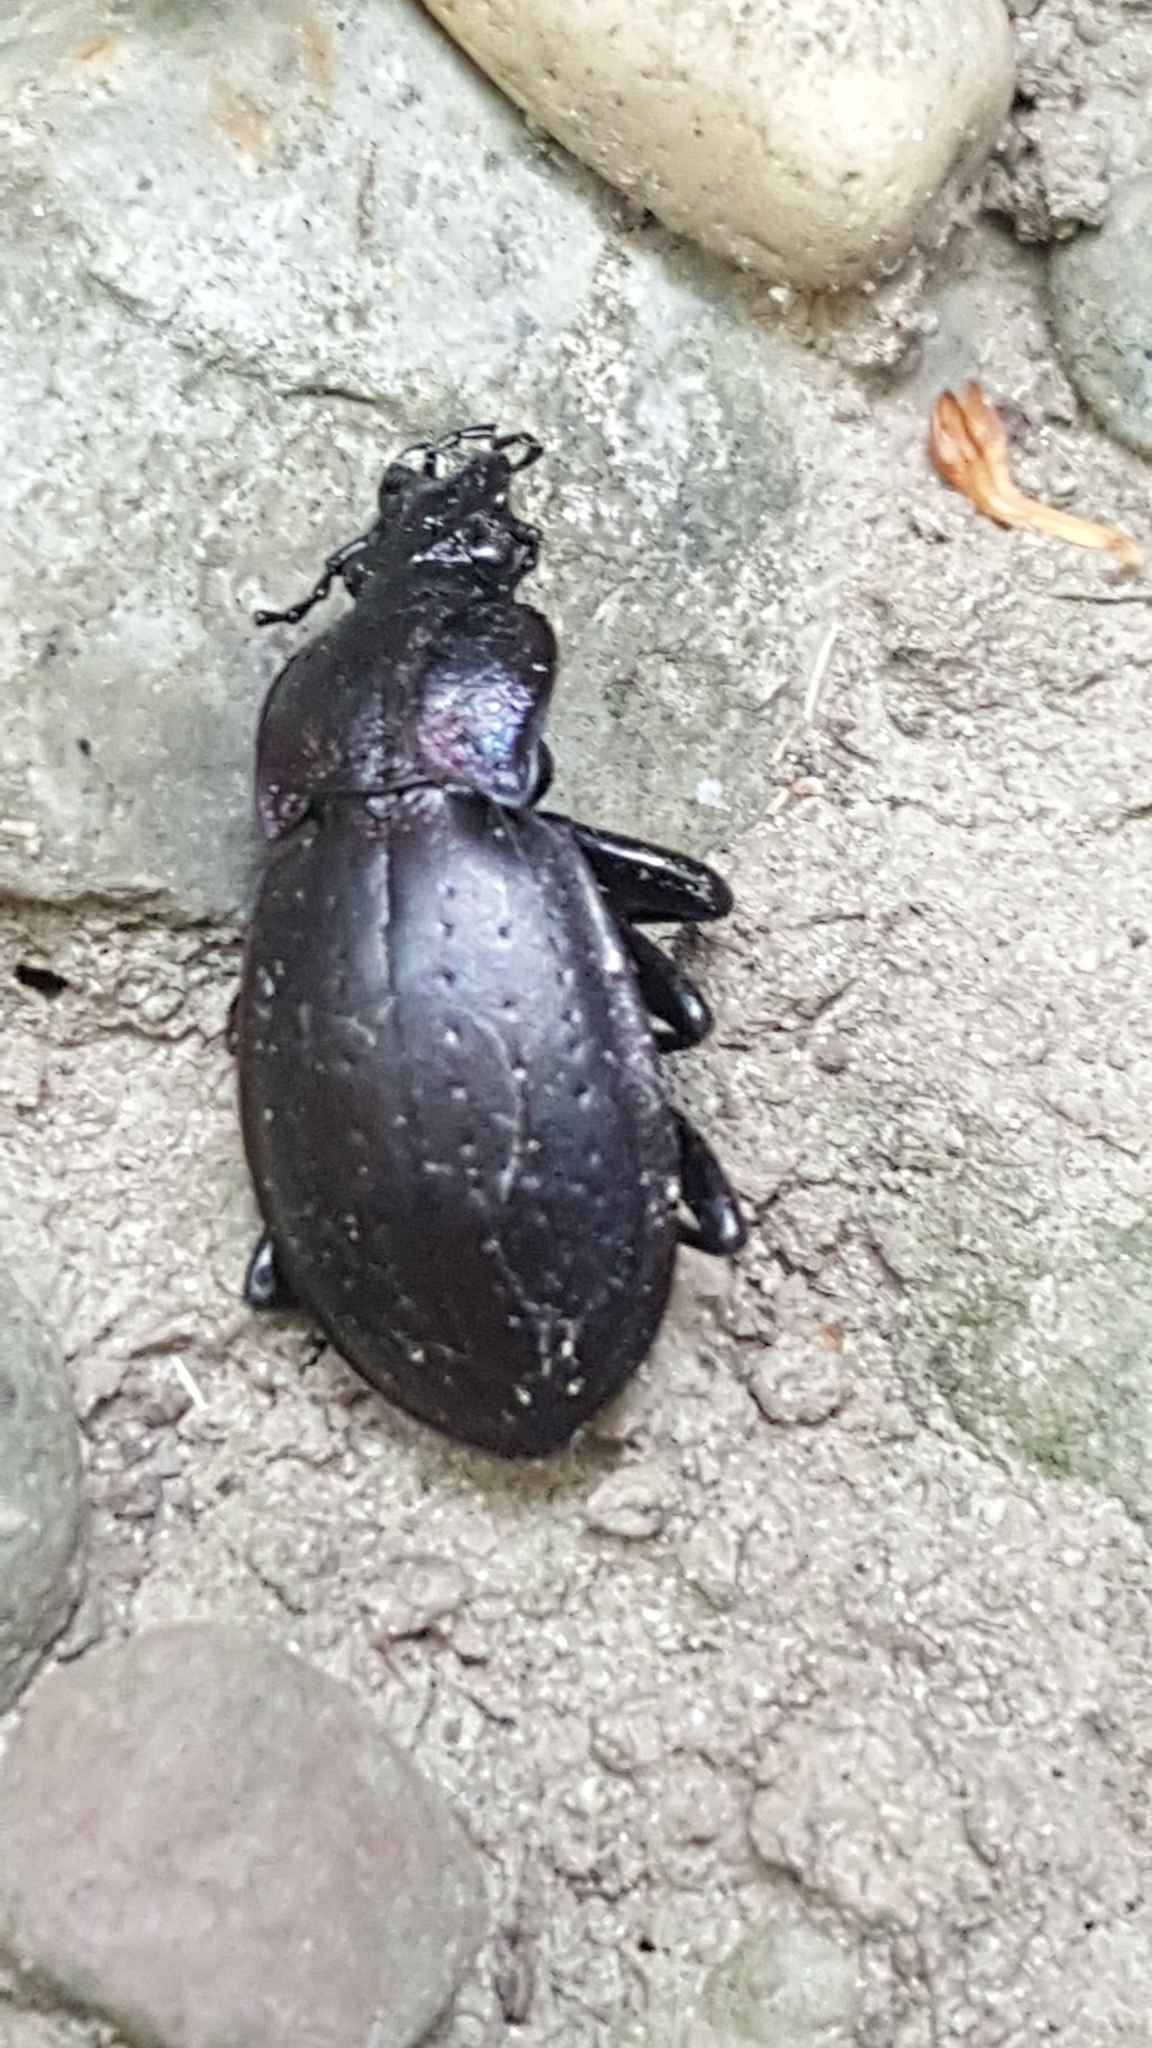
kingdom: Animalia
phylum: Arthropoda
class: Insecta
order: Coleoptera
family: Carabidae
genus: Carabus
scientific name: Carabus nemoralis
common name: European ground beetle
